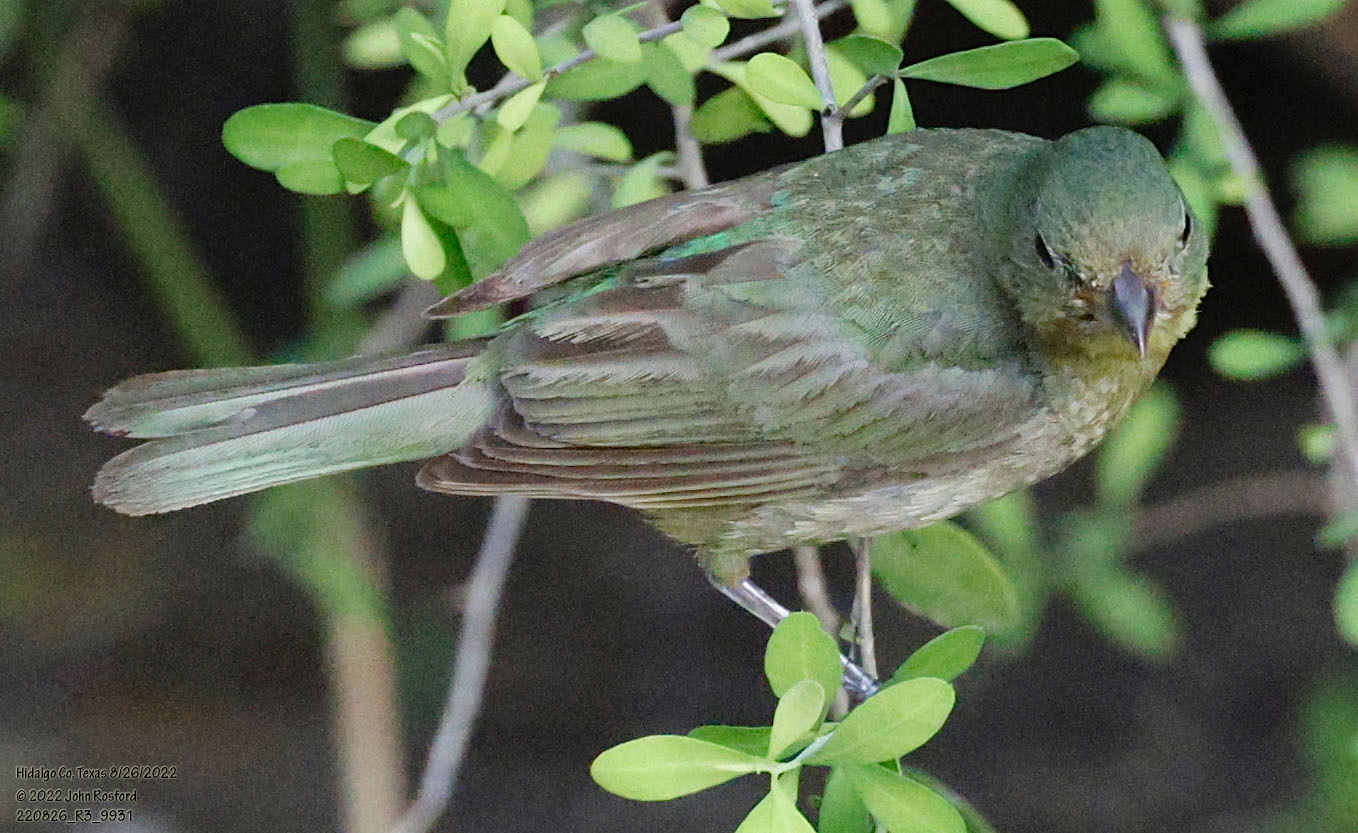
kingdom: Animalia
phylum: Chordata
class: Aves
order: Passeriformes
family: Cardinalidae
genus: Passerina
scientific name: Passerina ciris
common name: Painted bunting
